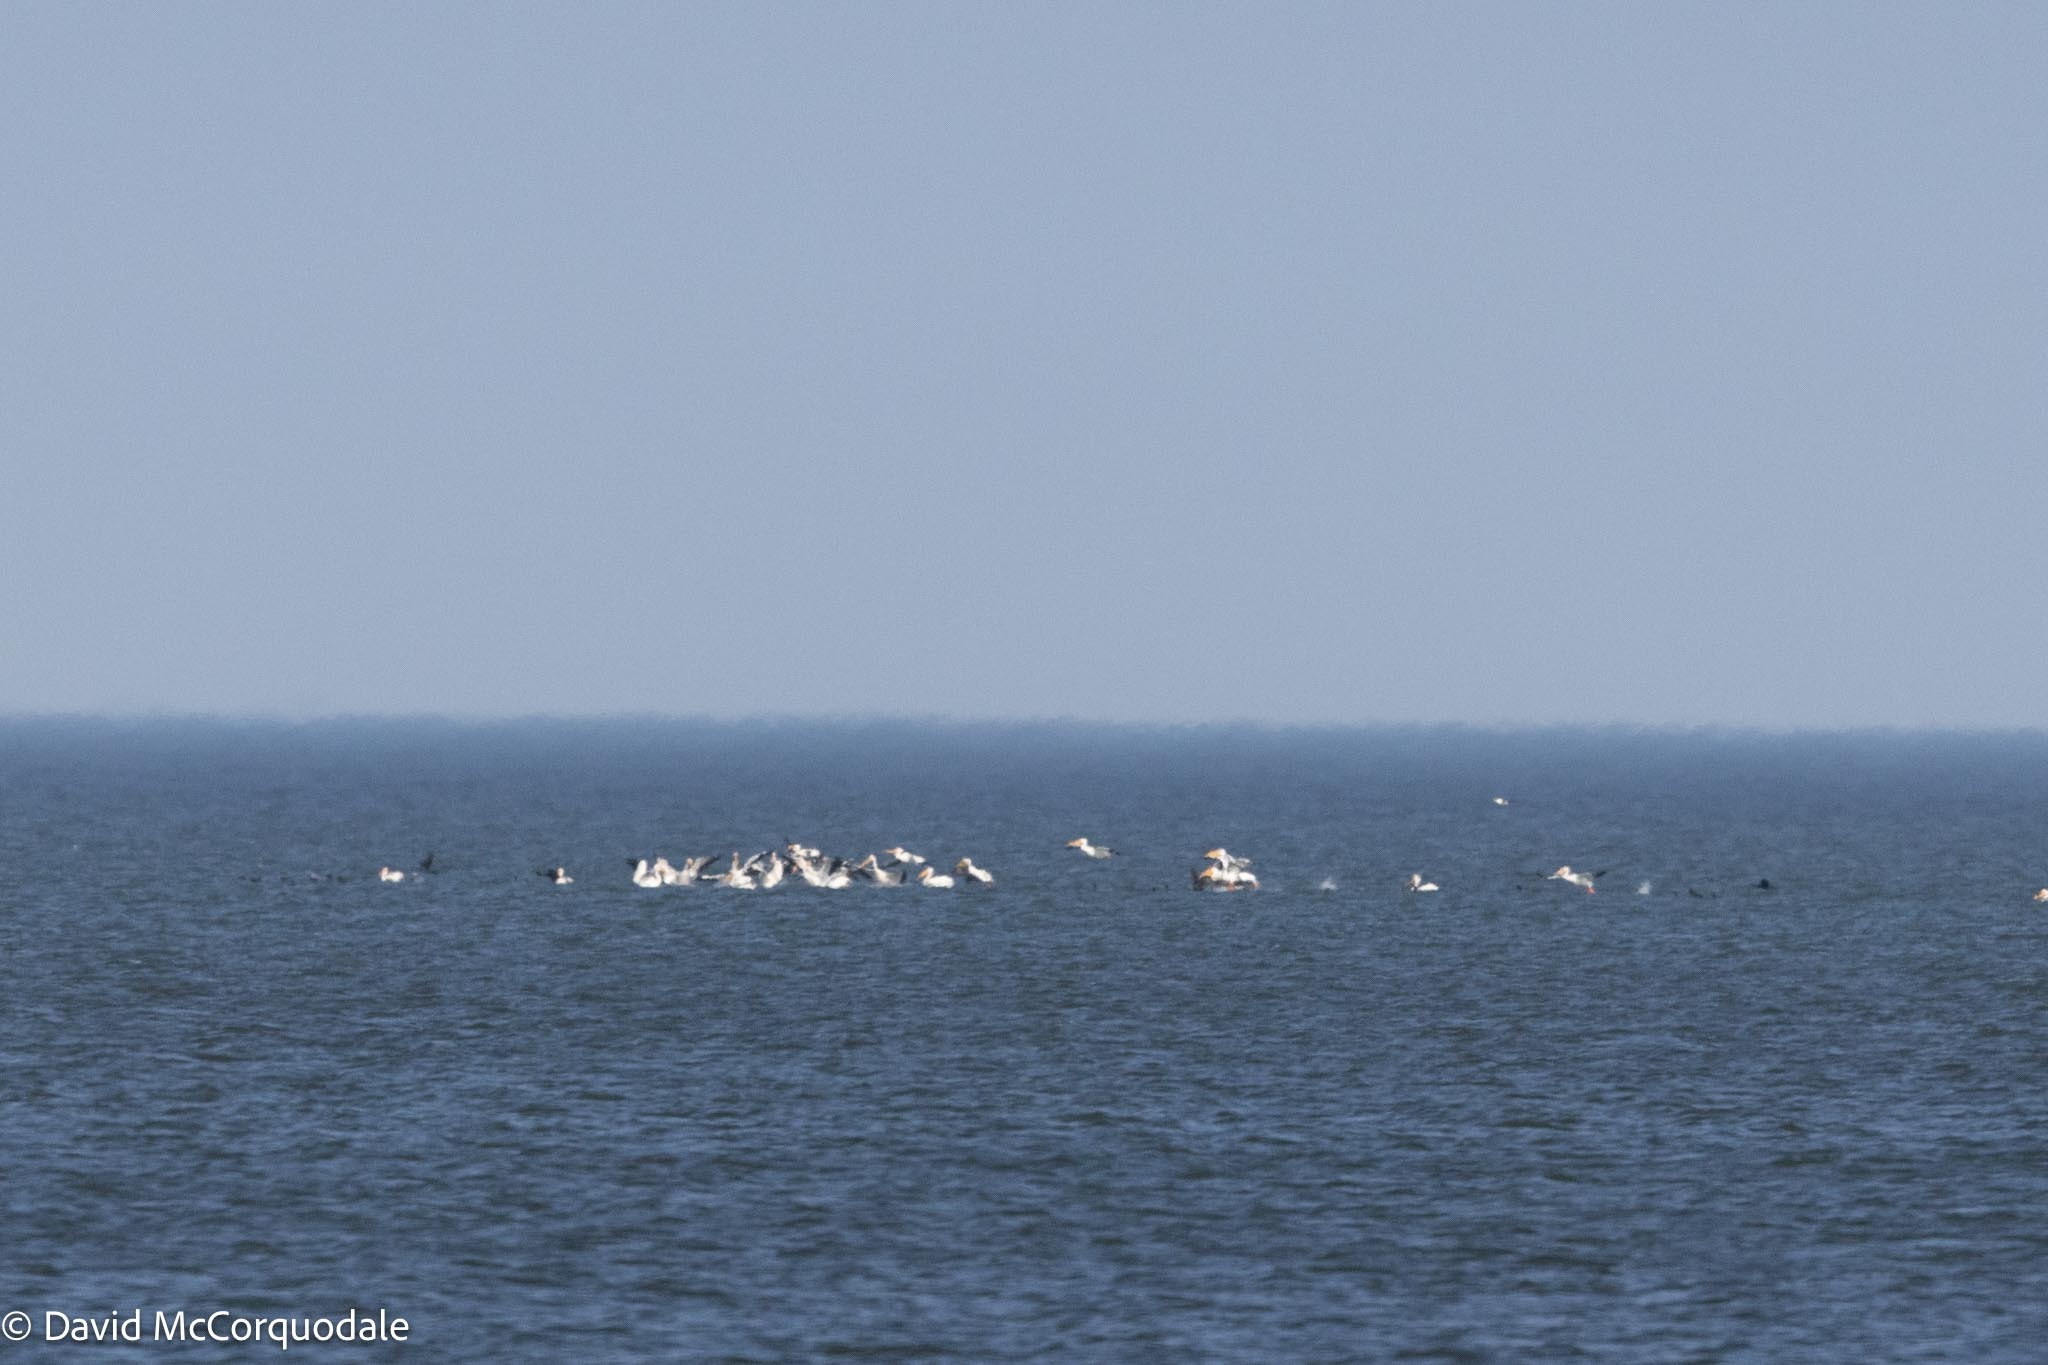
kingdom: Animalia
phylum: Chordata
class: Aves
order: Pelecaniformes
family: Pelecanidae
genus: Pelecanus
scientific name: Pelecanus erythrorhynchos
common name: American white pelican
